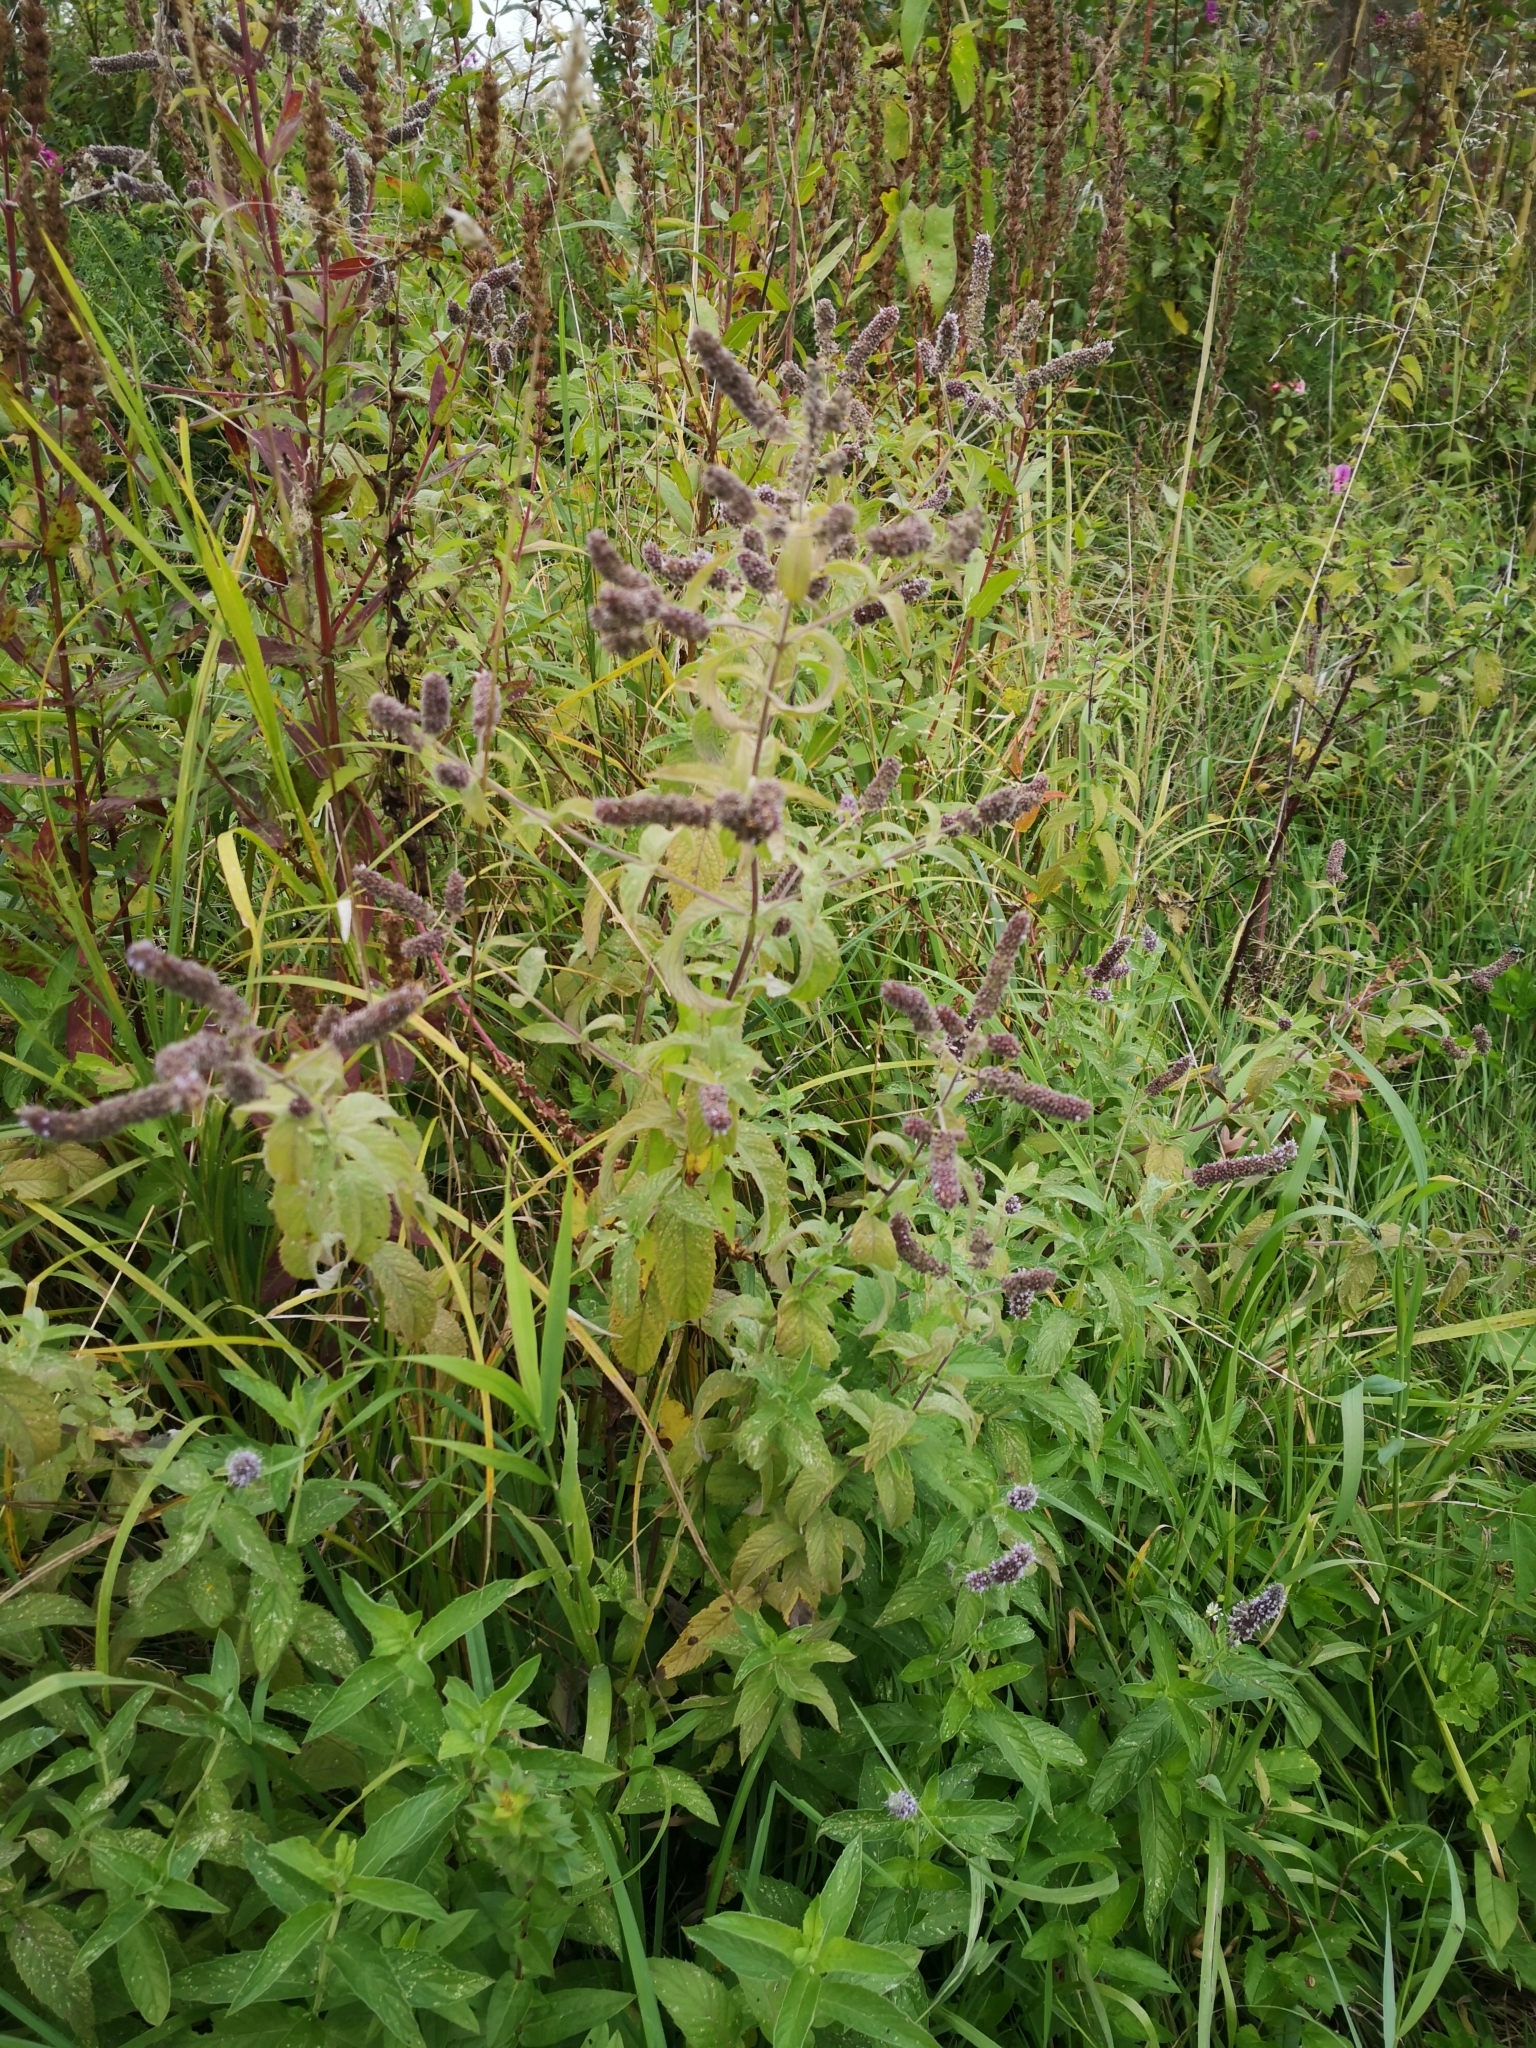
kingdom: Plantae
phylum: Tracheophyta
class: Magnoliopsida
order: Lamiales
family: Lamiaceae
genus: Mentha
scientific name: Mentha longifolia
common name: Horse mint
